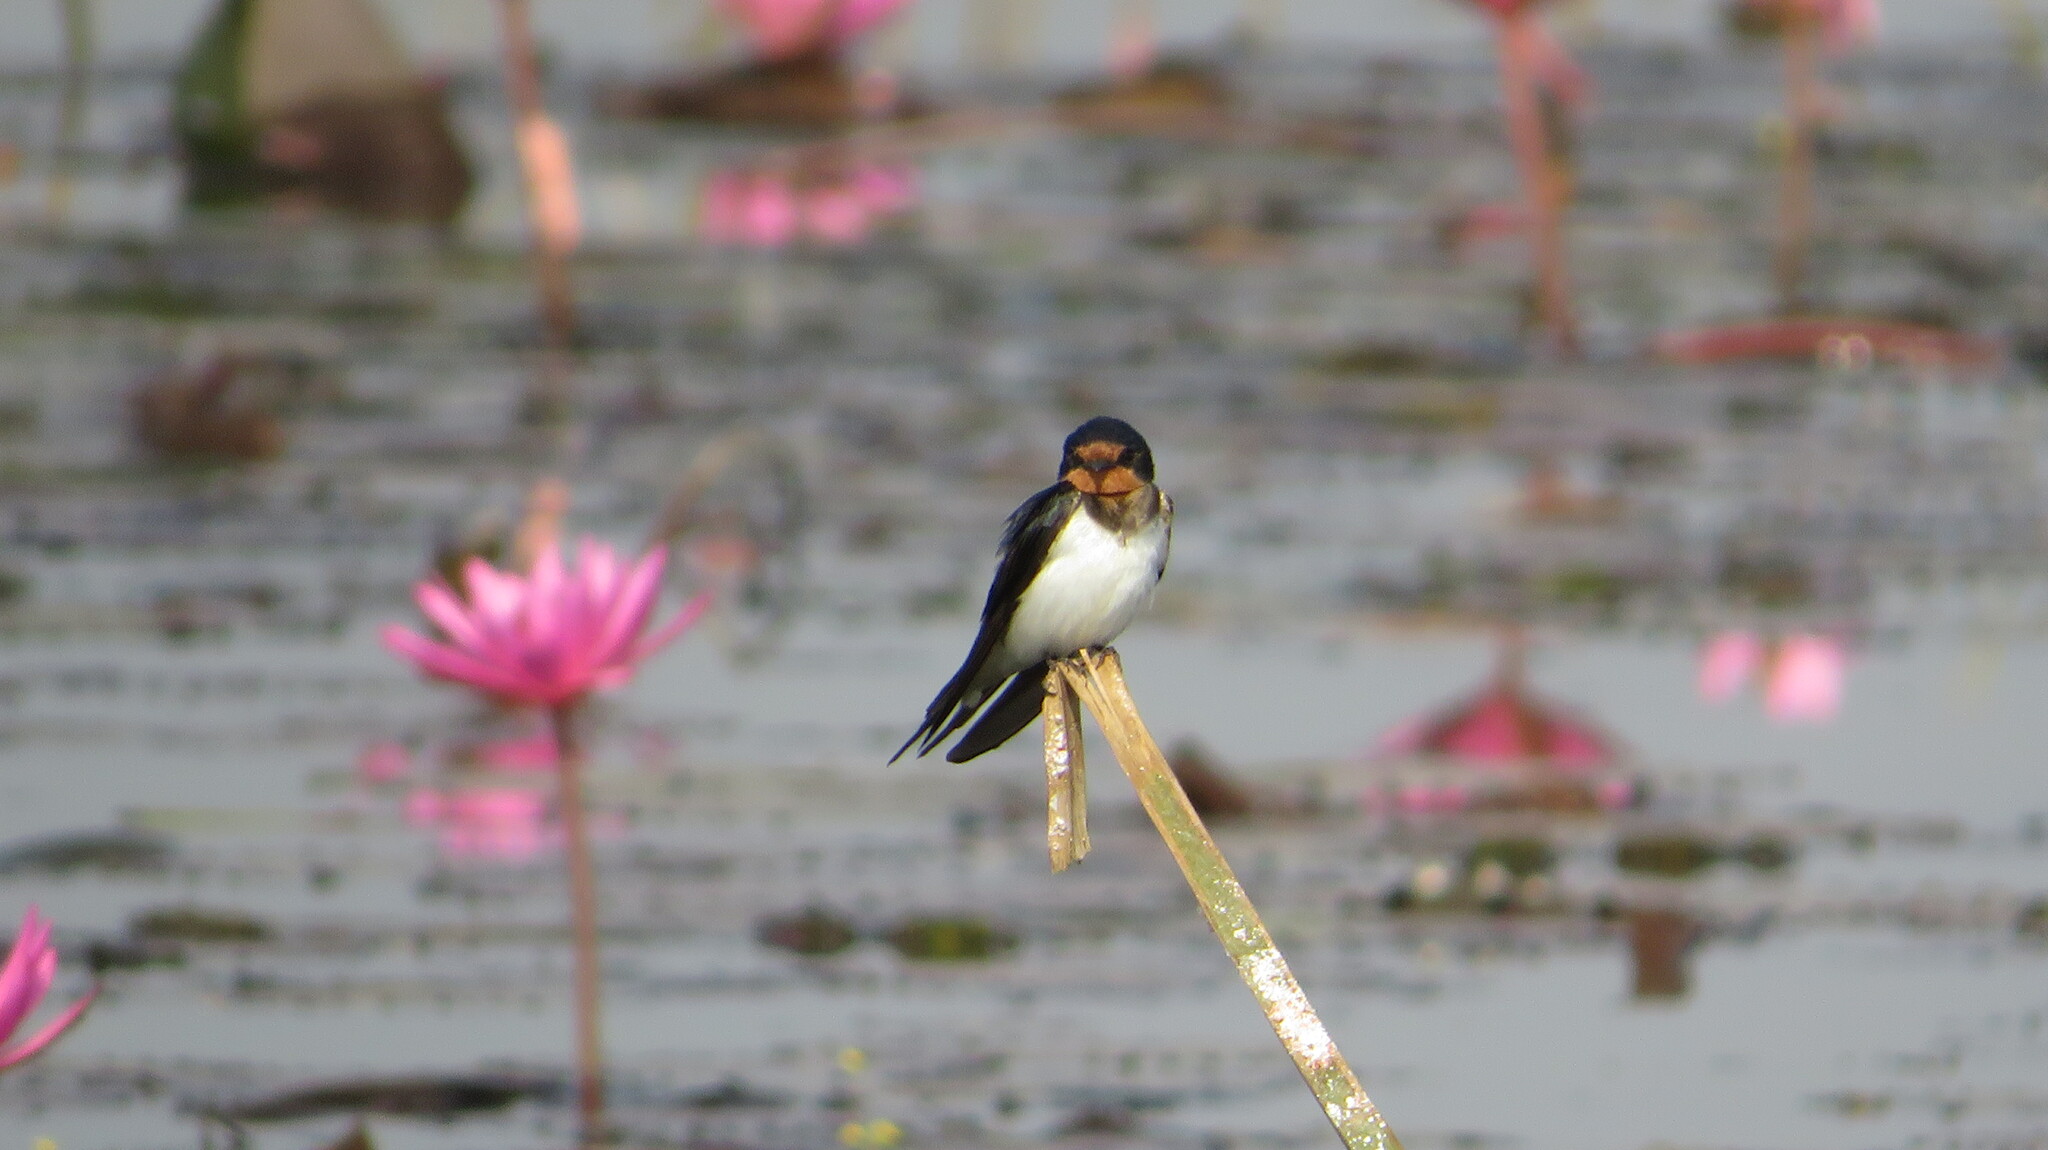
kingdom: Animalia
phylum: Chordata
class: Aves
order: Passeriformes
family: Hirundinidae
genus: Hirundo
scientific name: Hirundo rustica
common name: Barn swallow
